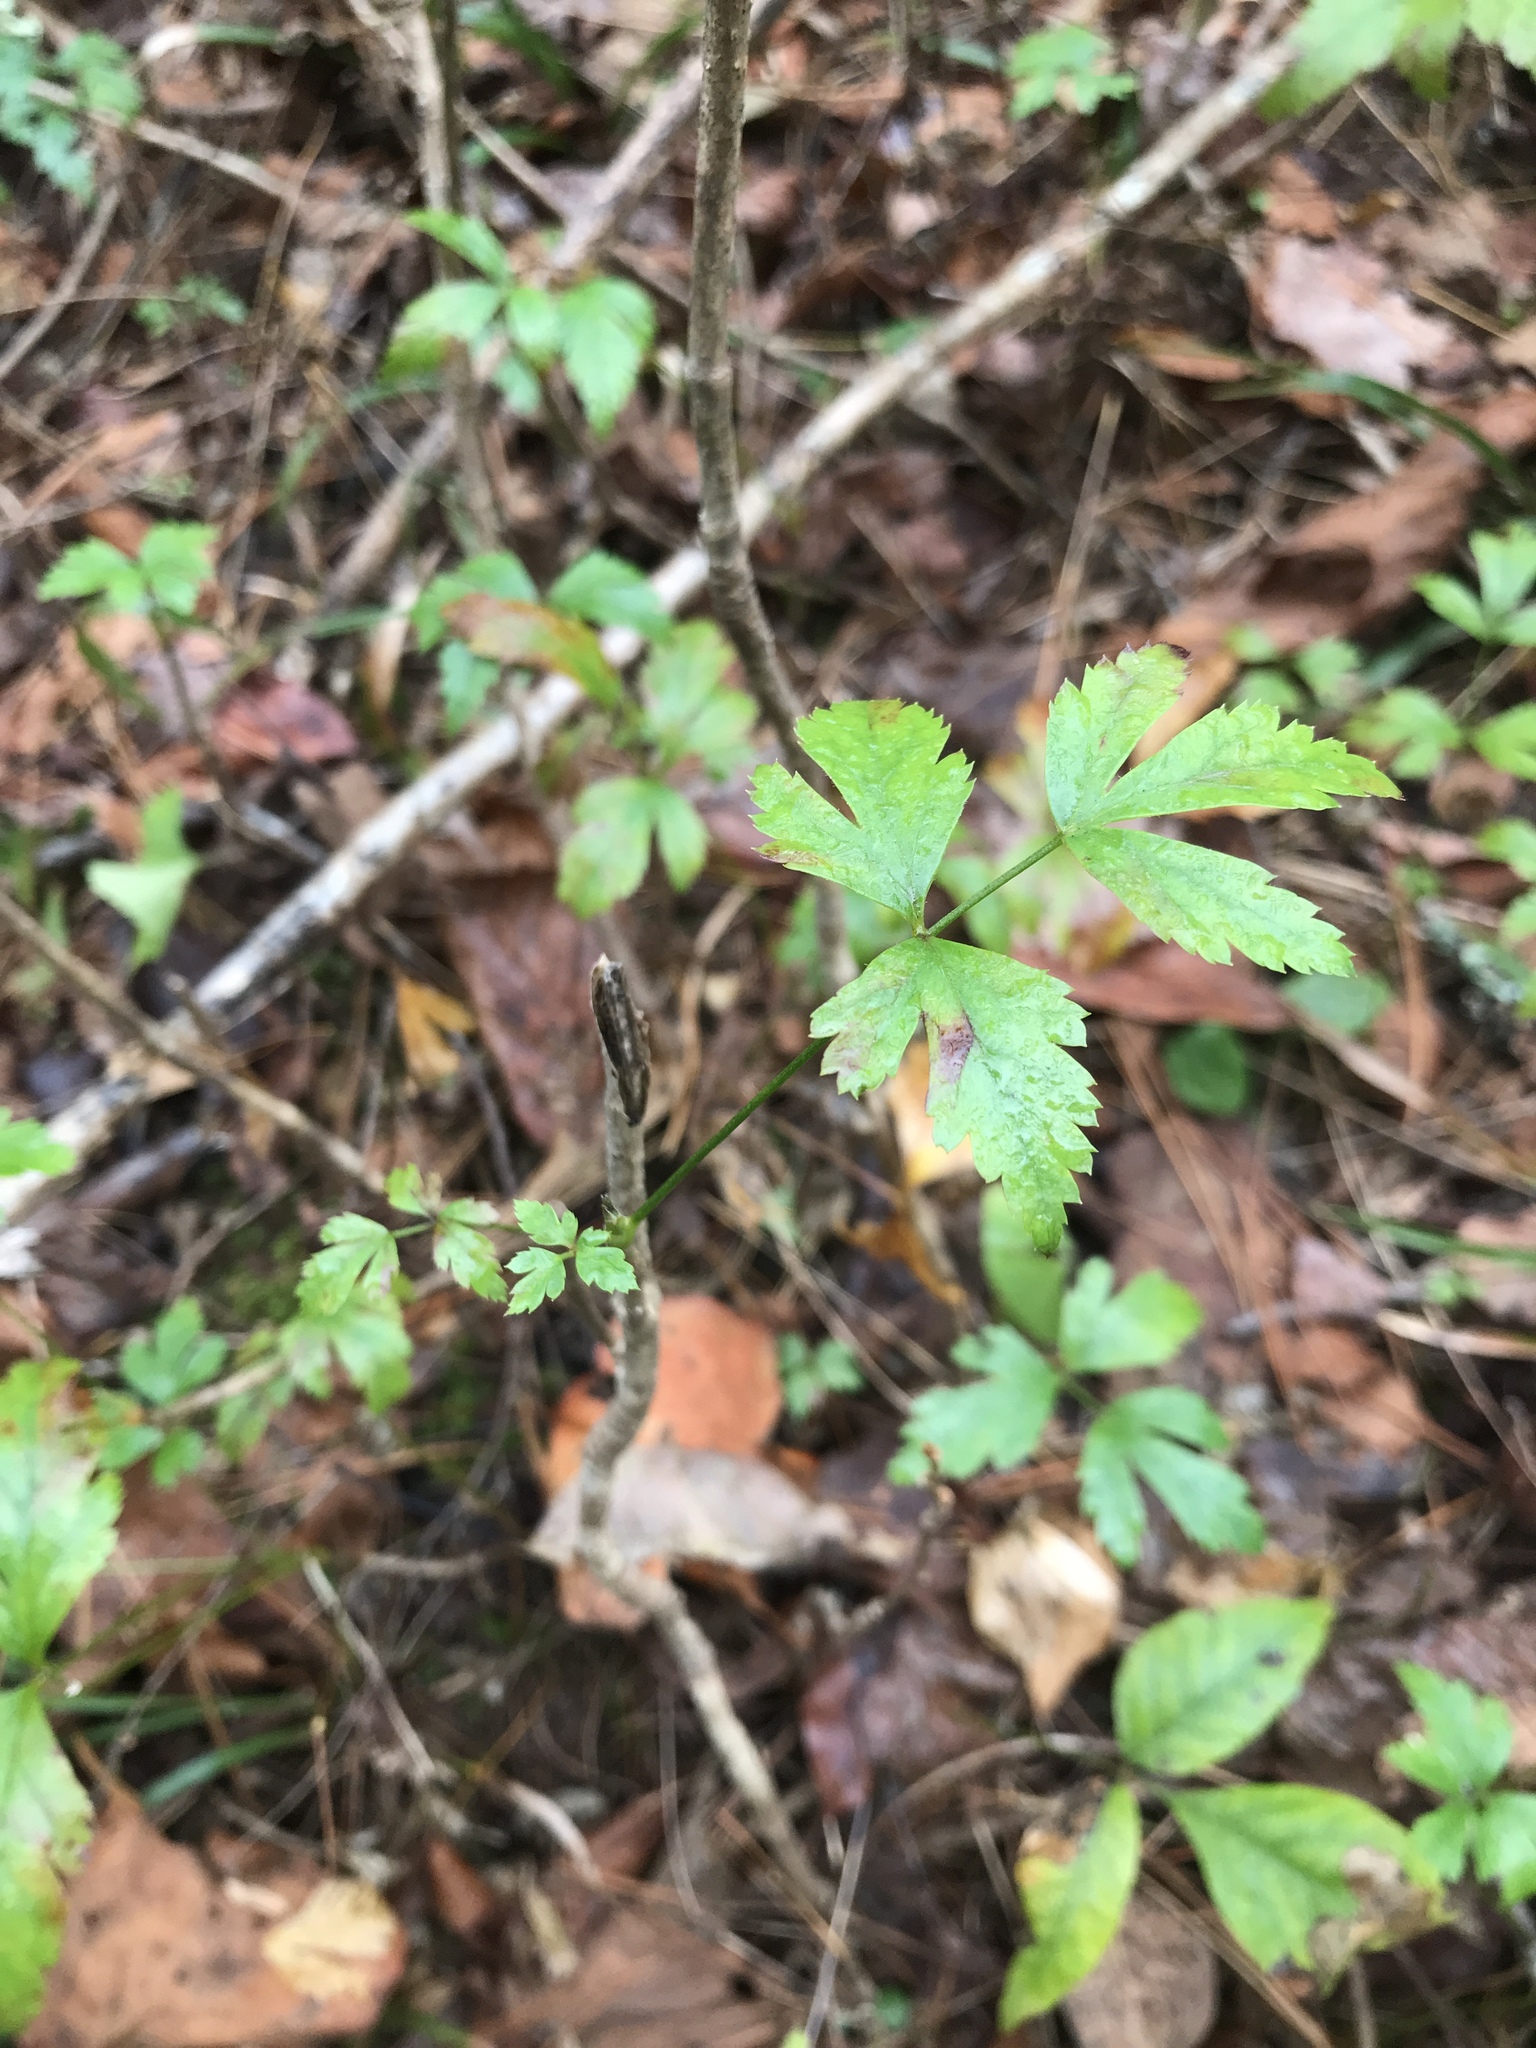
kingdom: Plantae
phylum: Tracheophyta
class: Magnoliopsida
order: Ranunculales
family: Ranunculaceae
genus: Xanthorhiza
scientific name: Xanthorhiza simplicissima
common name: Yellowroot
